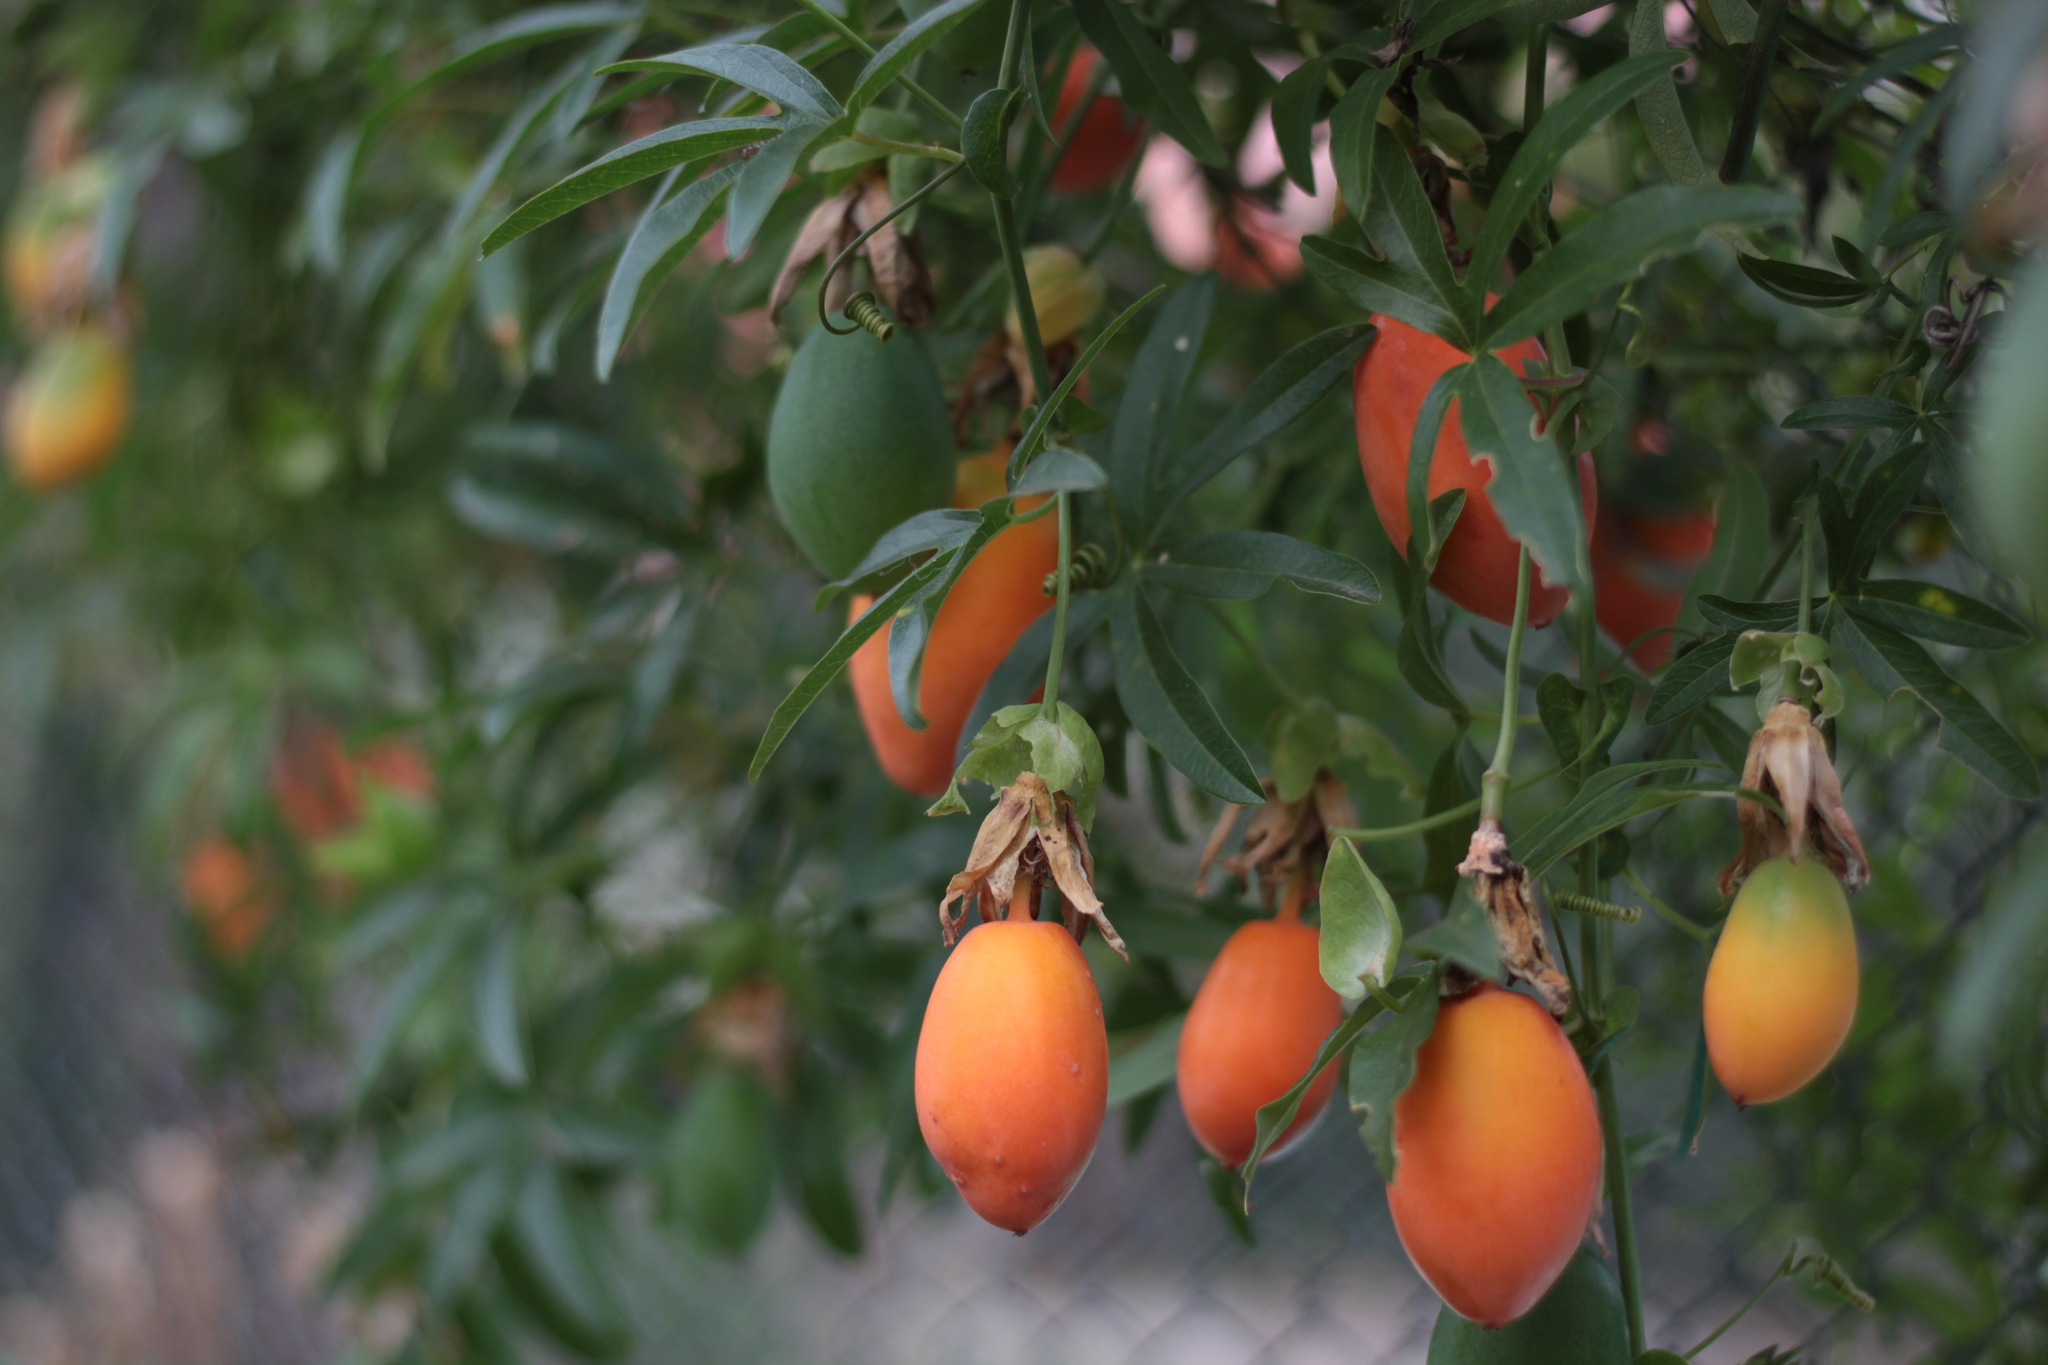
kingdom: Plantae
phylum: Tracheophyta
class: Magnoliopsida
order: Malpighiales
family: Passifloraceae
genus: Passiflora
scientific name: Passiflora caerulea
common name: Blue passionflower
